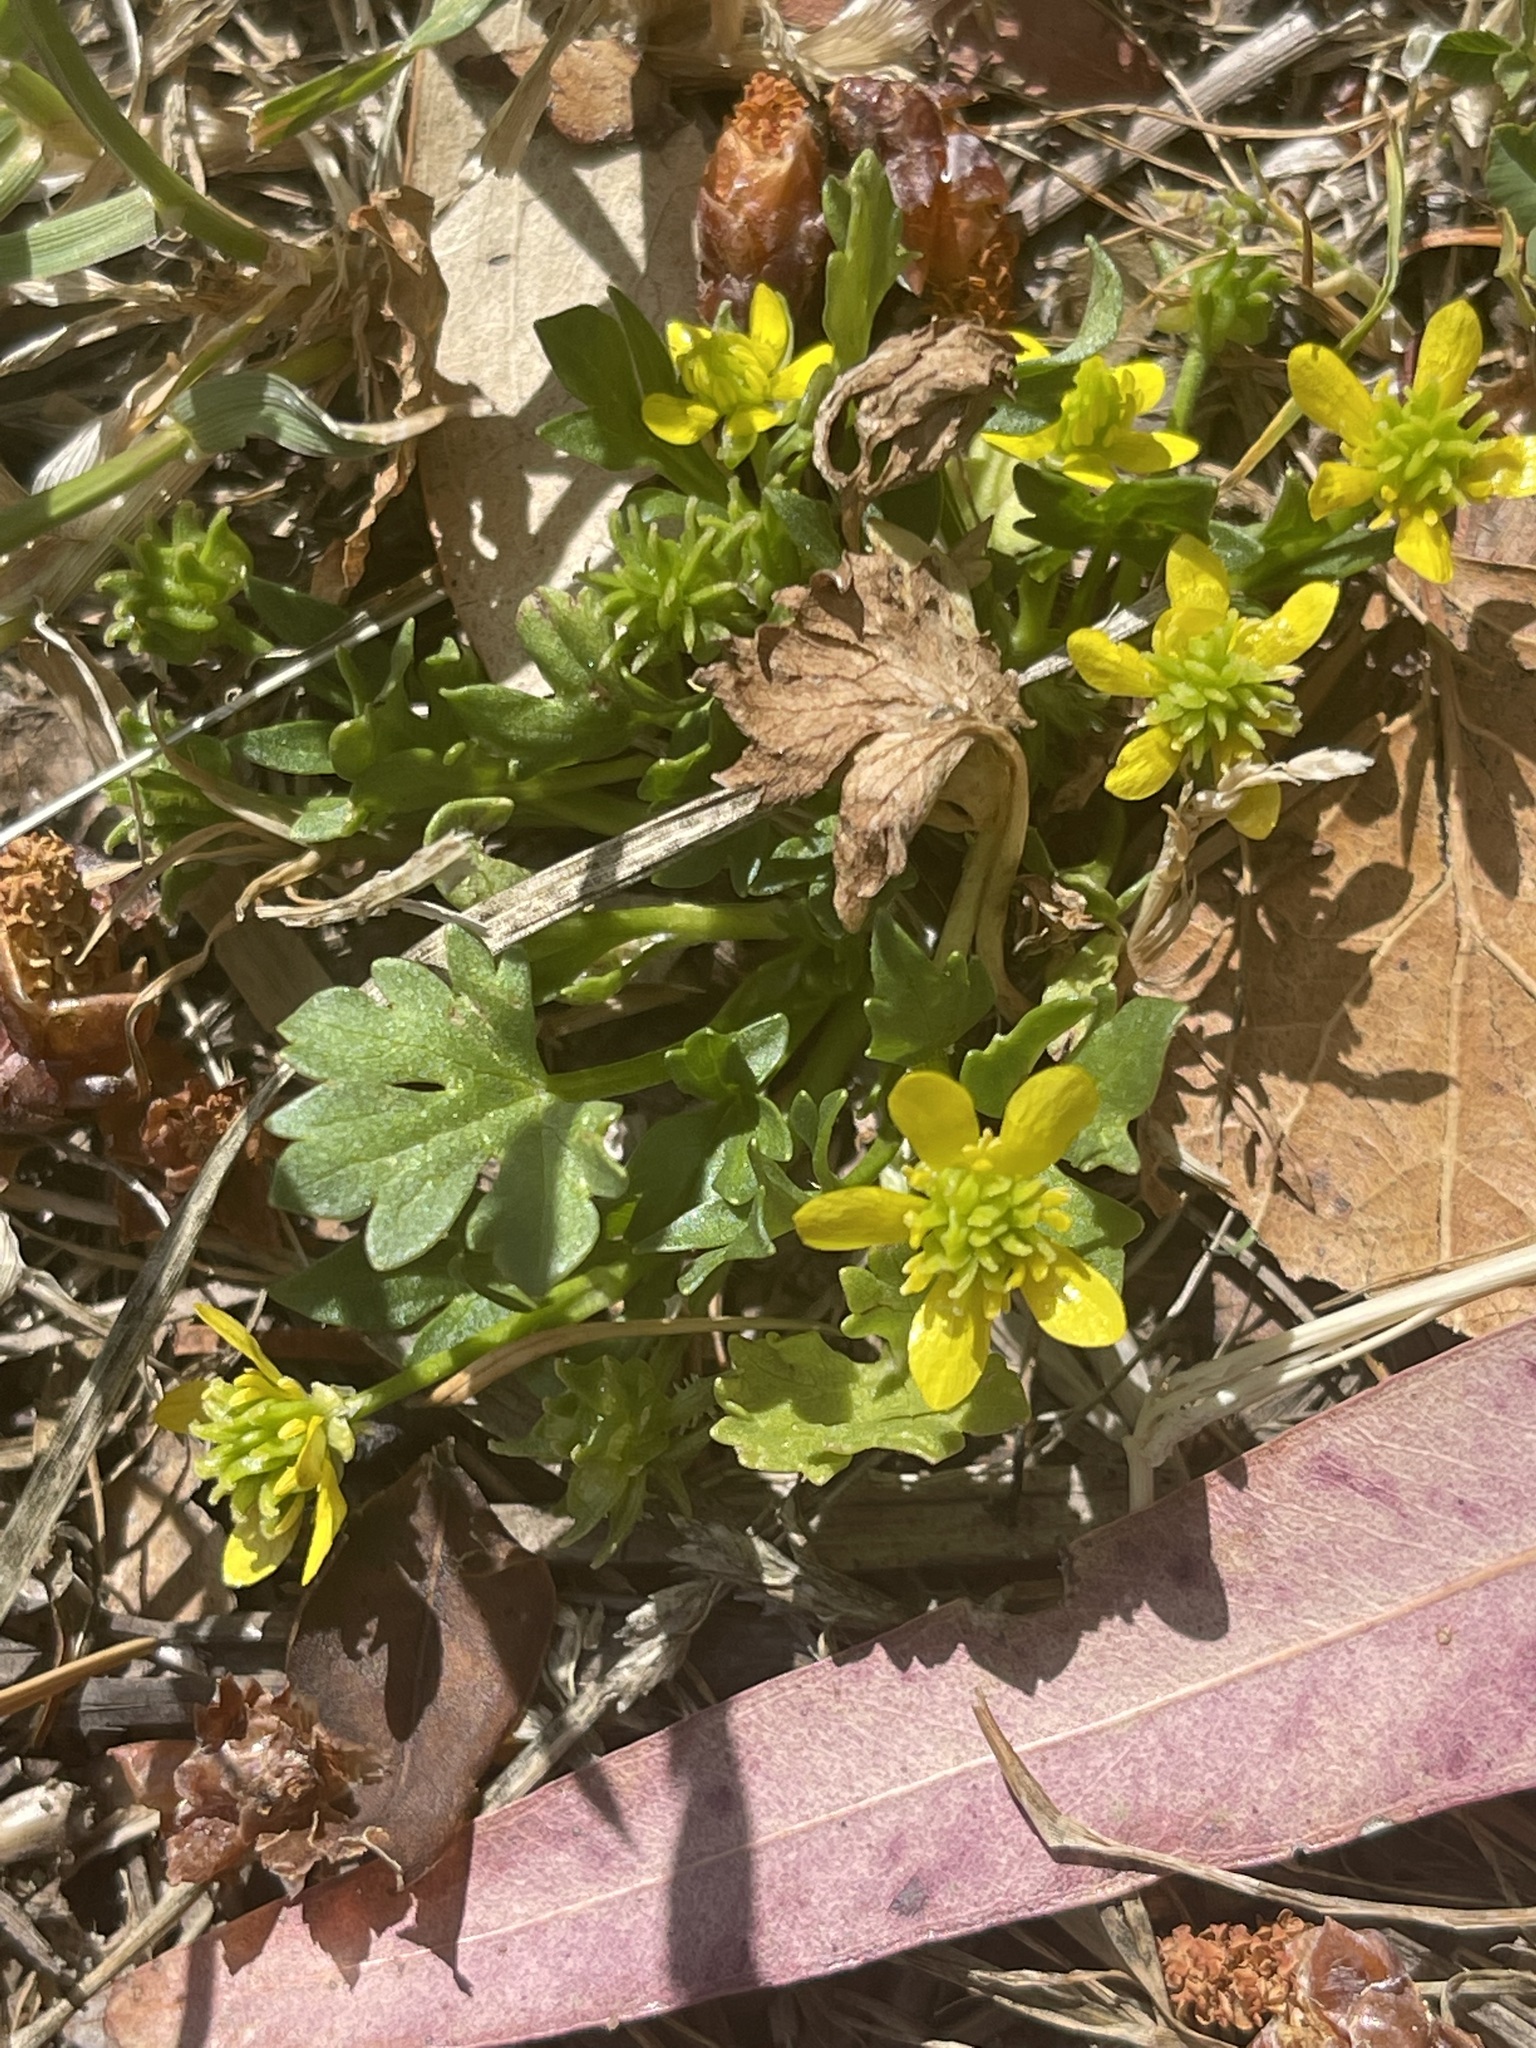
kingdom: Plantae
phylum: Tracheophyta
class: Magnoliopsida
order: Ranunculales
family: Ranunculaceae
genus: Ranunculus
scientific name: Ranunculus muricatus
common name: Rough-fruited buttercup
